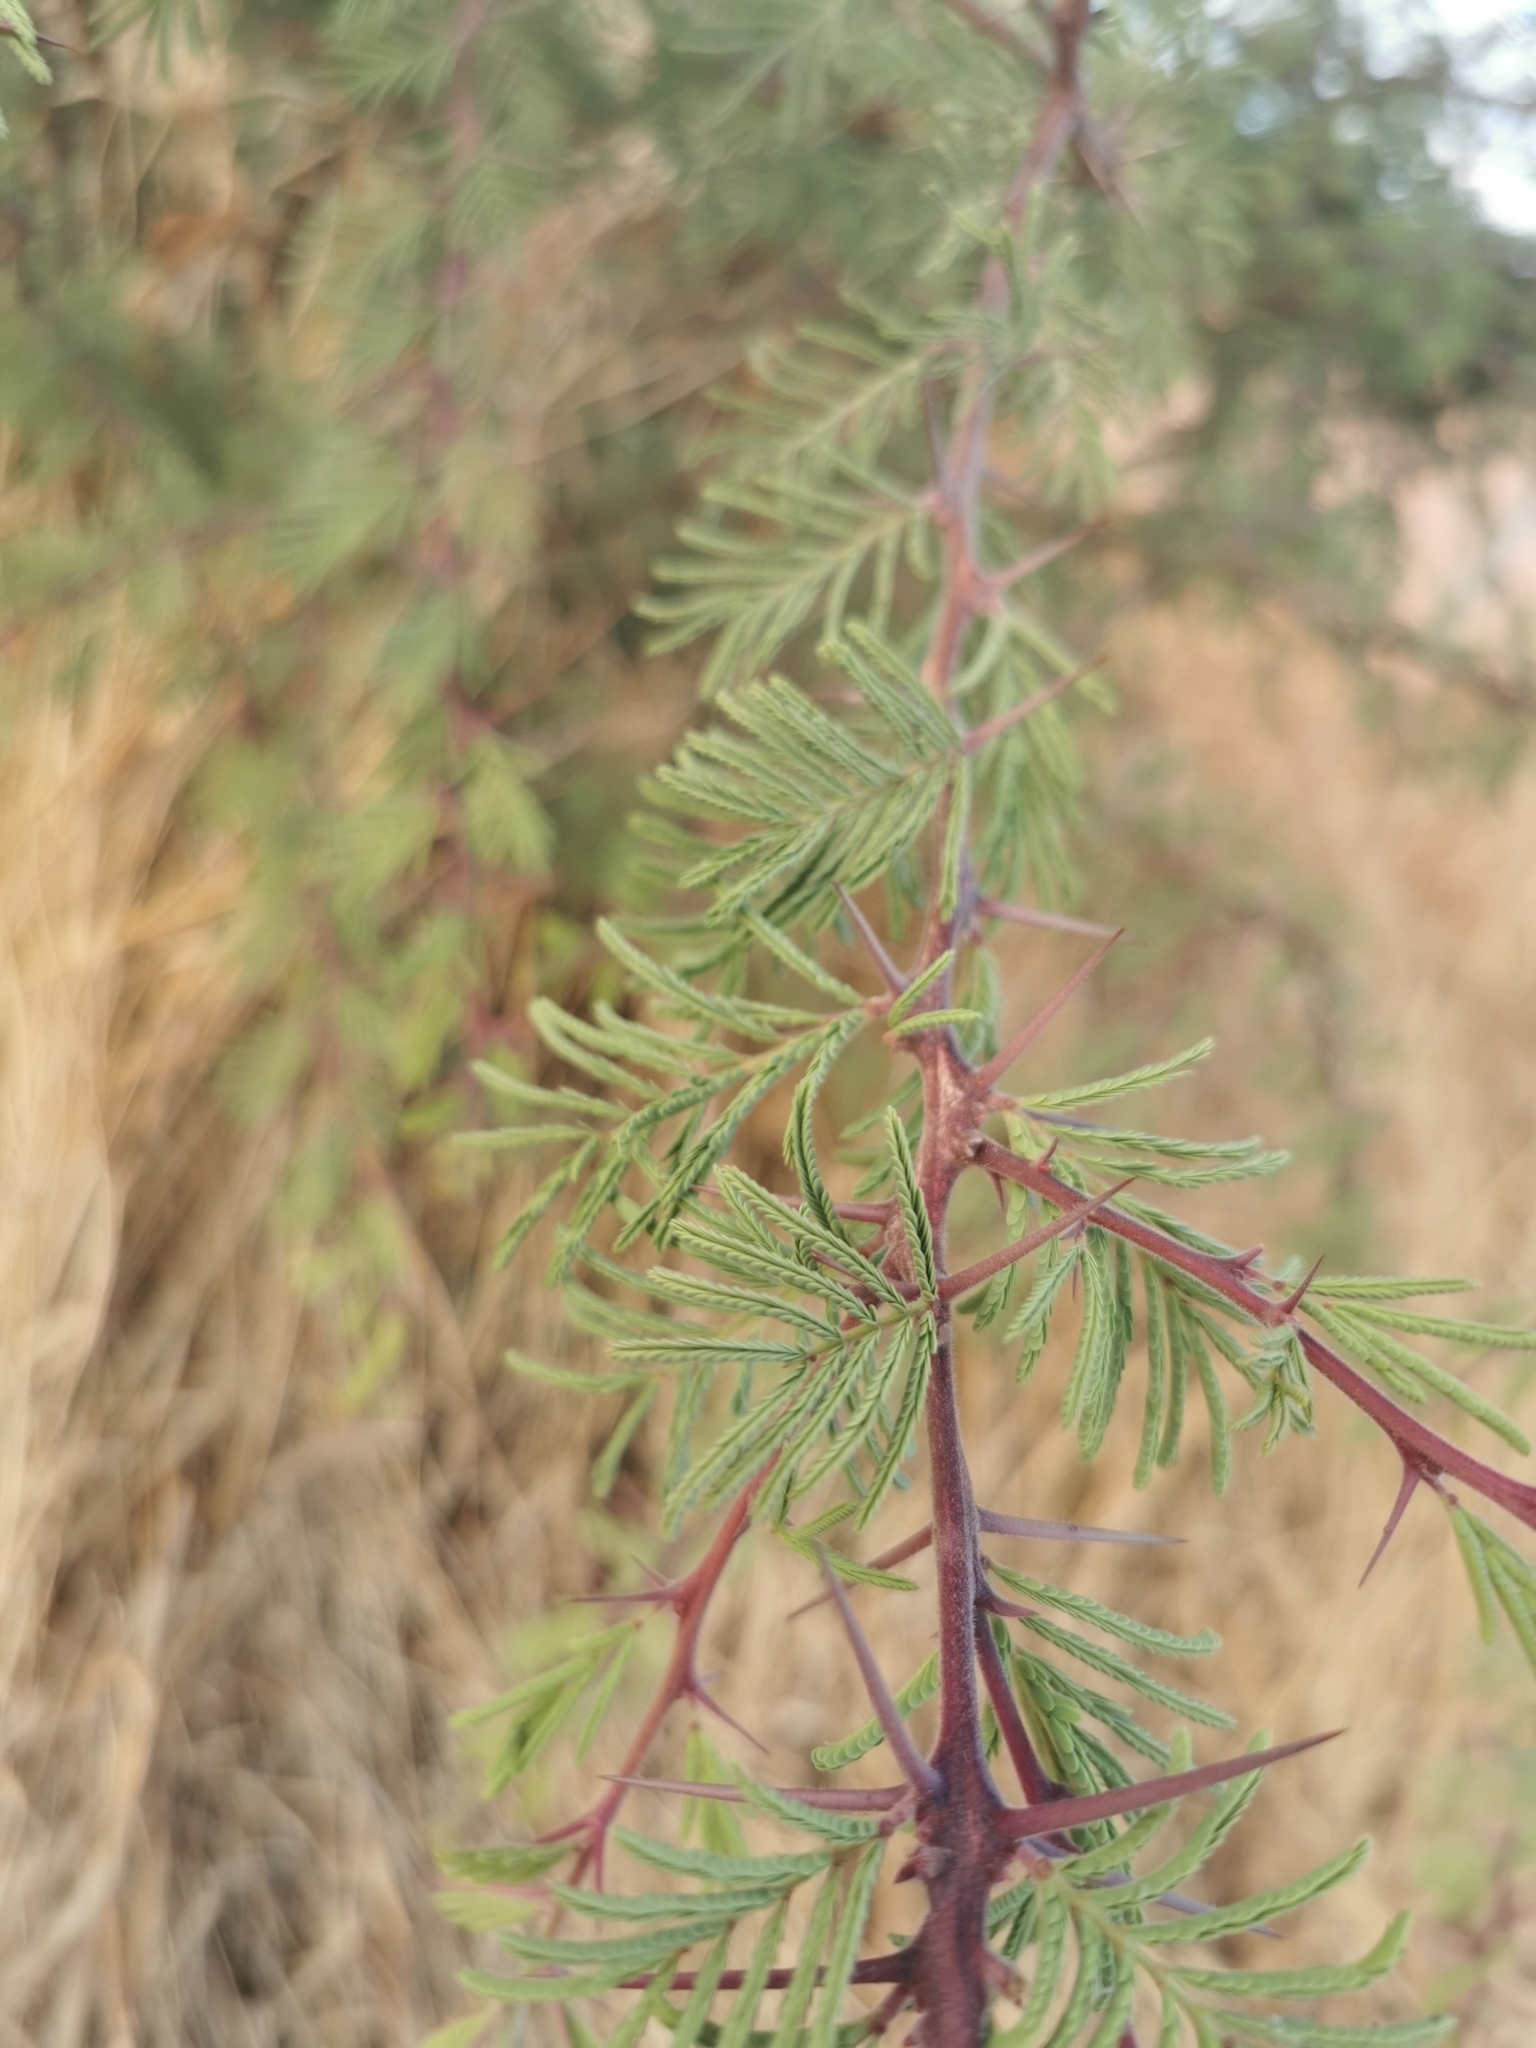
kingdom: Plantae
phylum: Tracheophyta
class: Magnoliopsida
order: Fabales
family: Fabaceae
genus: Vachellia
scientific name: Vachellia schaffneri
